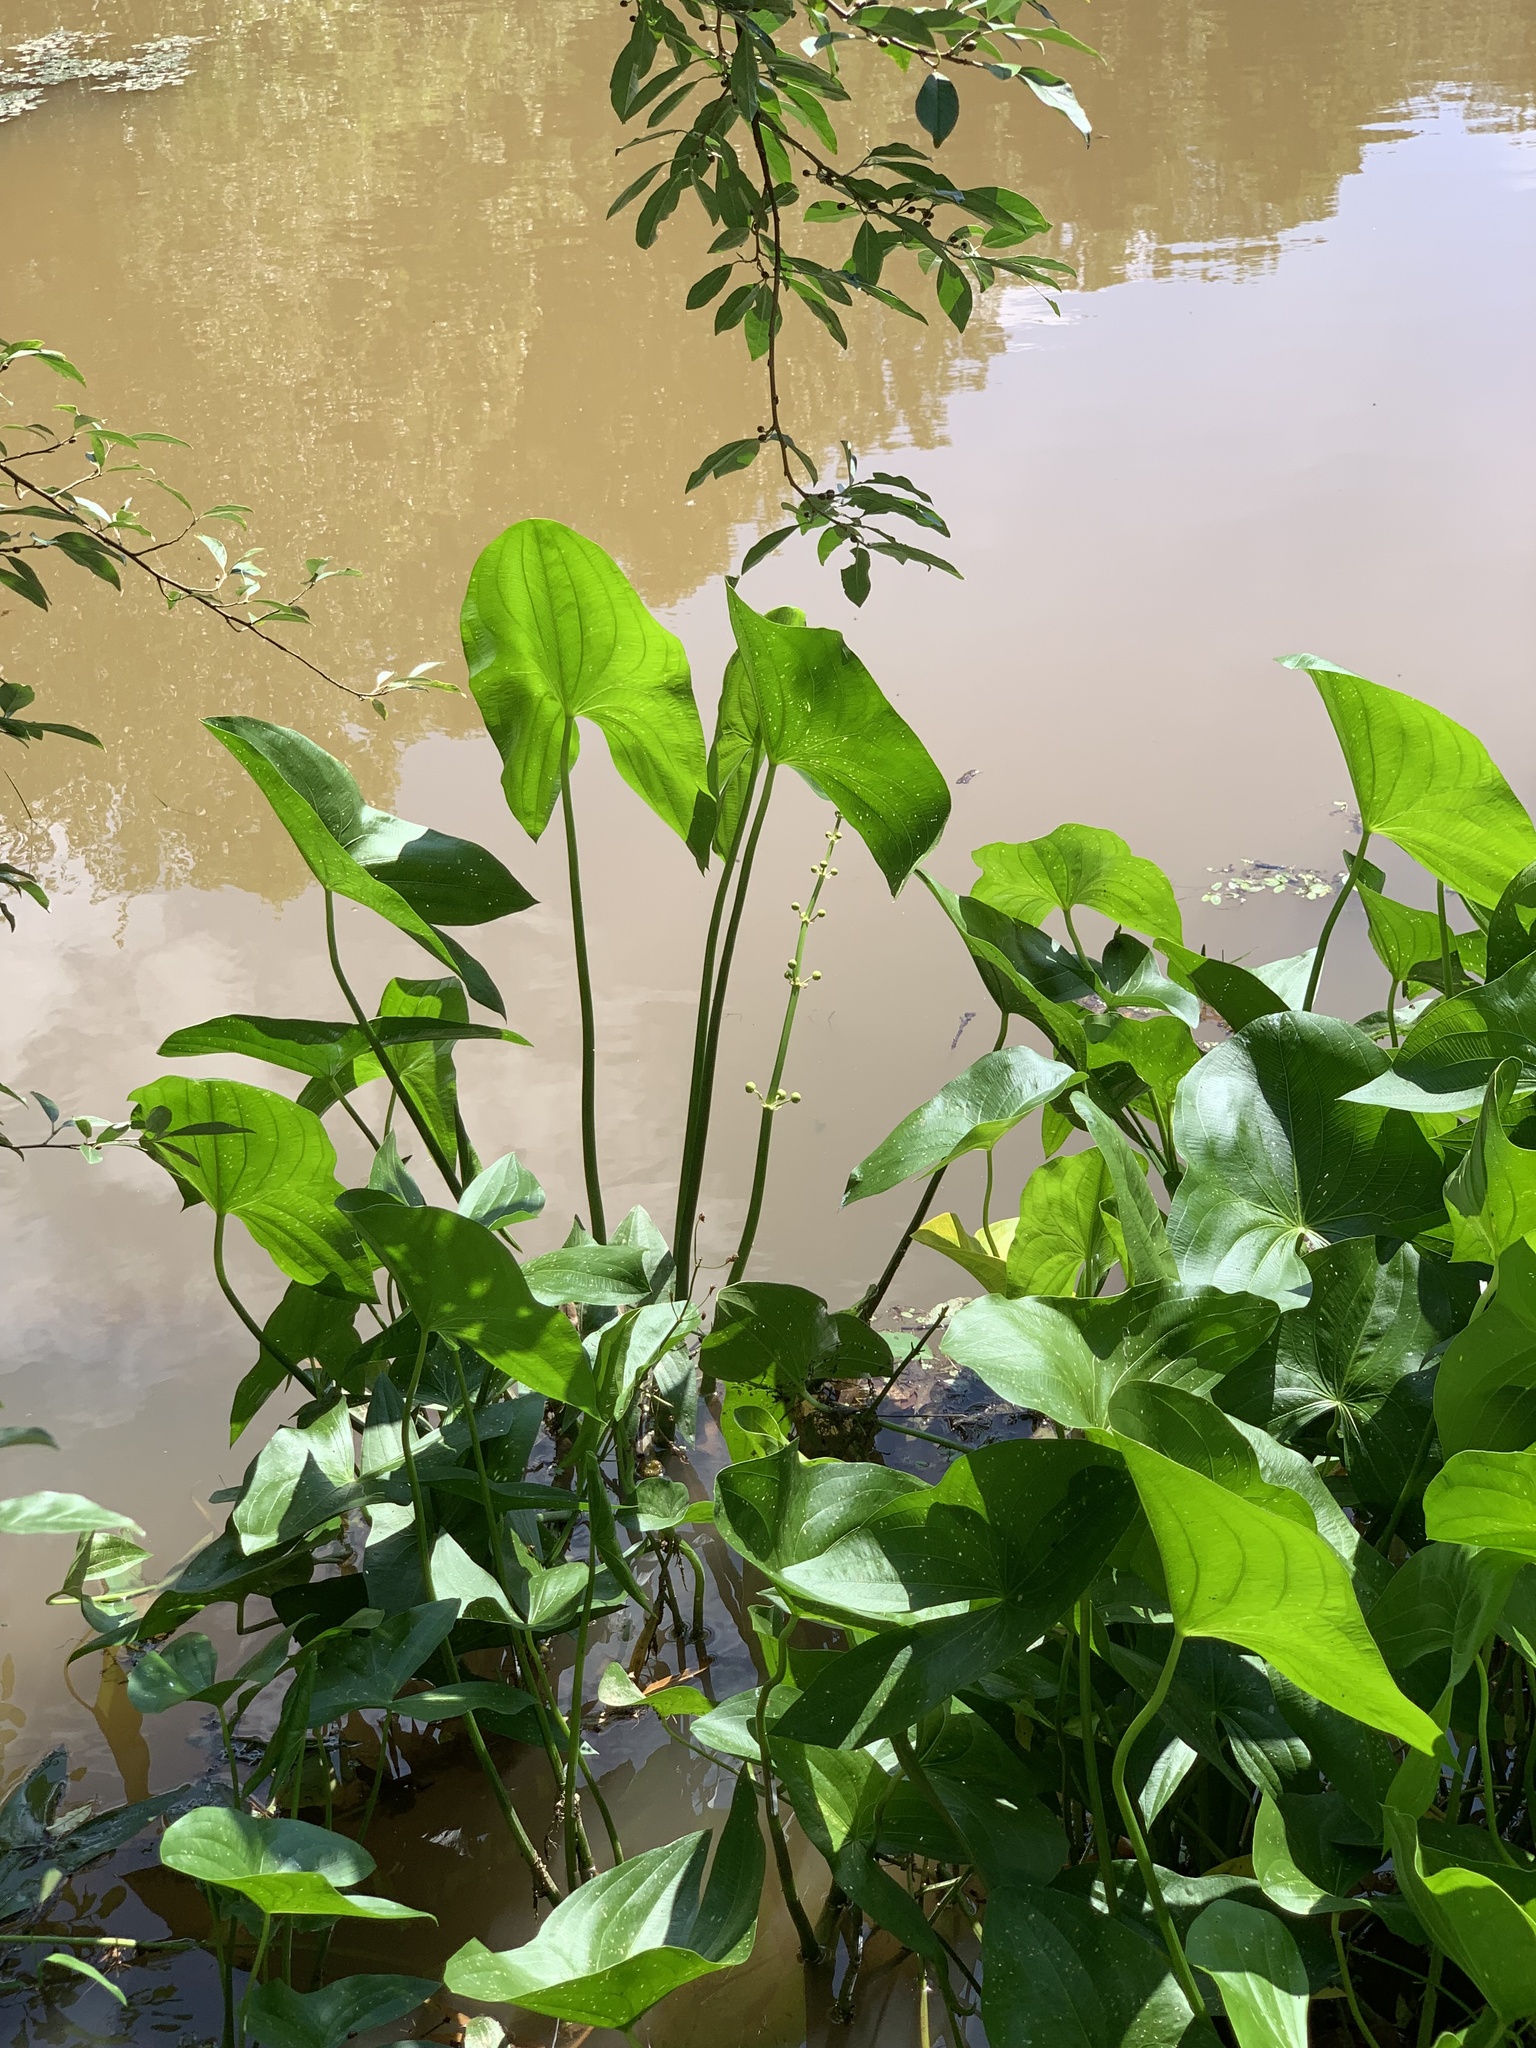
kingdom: Plantae
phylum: Tracheophyta
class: Liliopsida
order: Alismatales
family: Alismataceae
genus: Sagittaria
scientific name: Sagittaria latifolia
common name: Duck-potato
